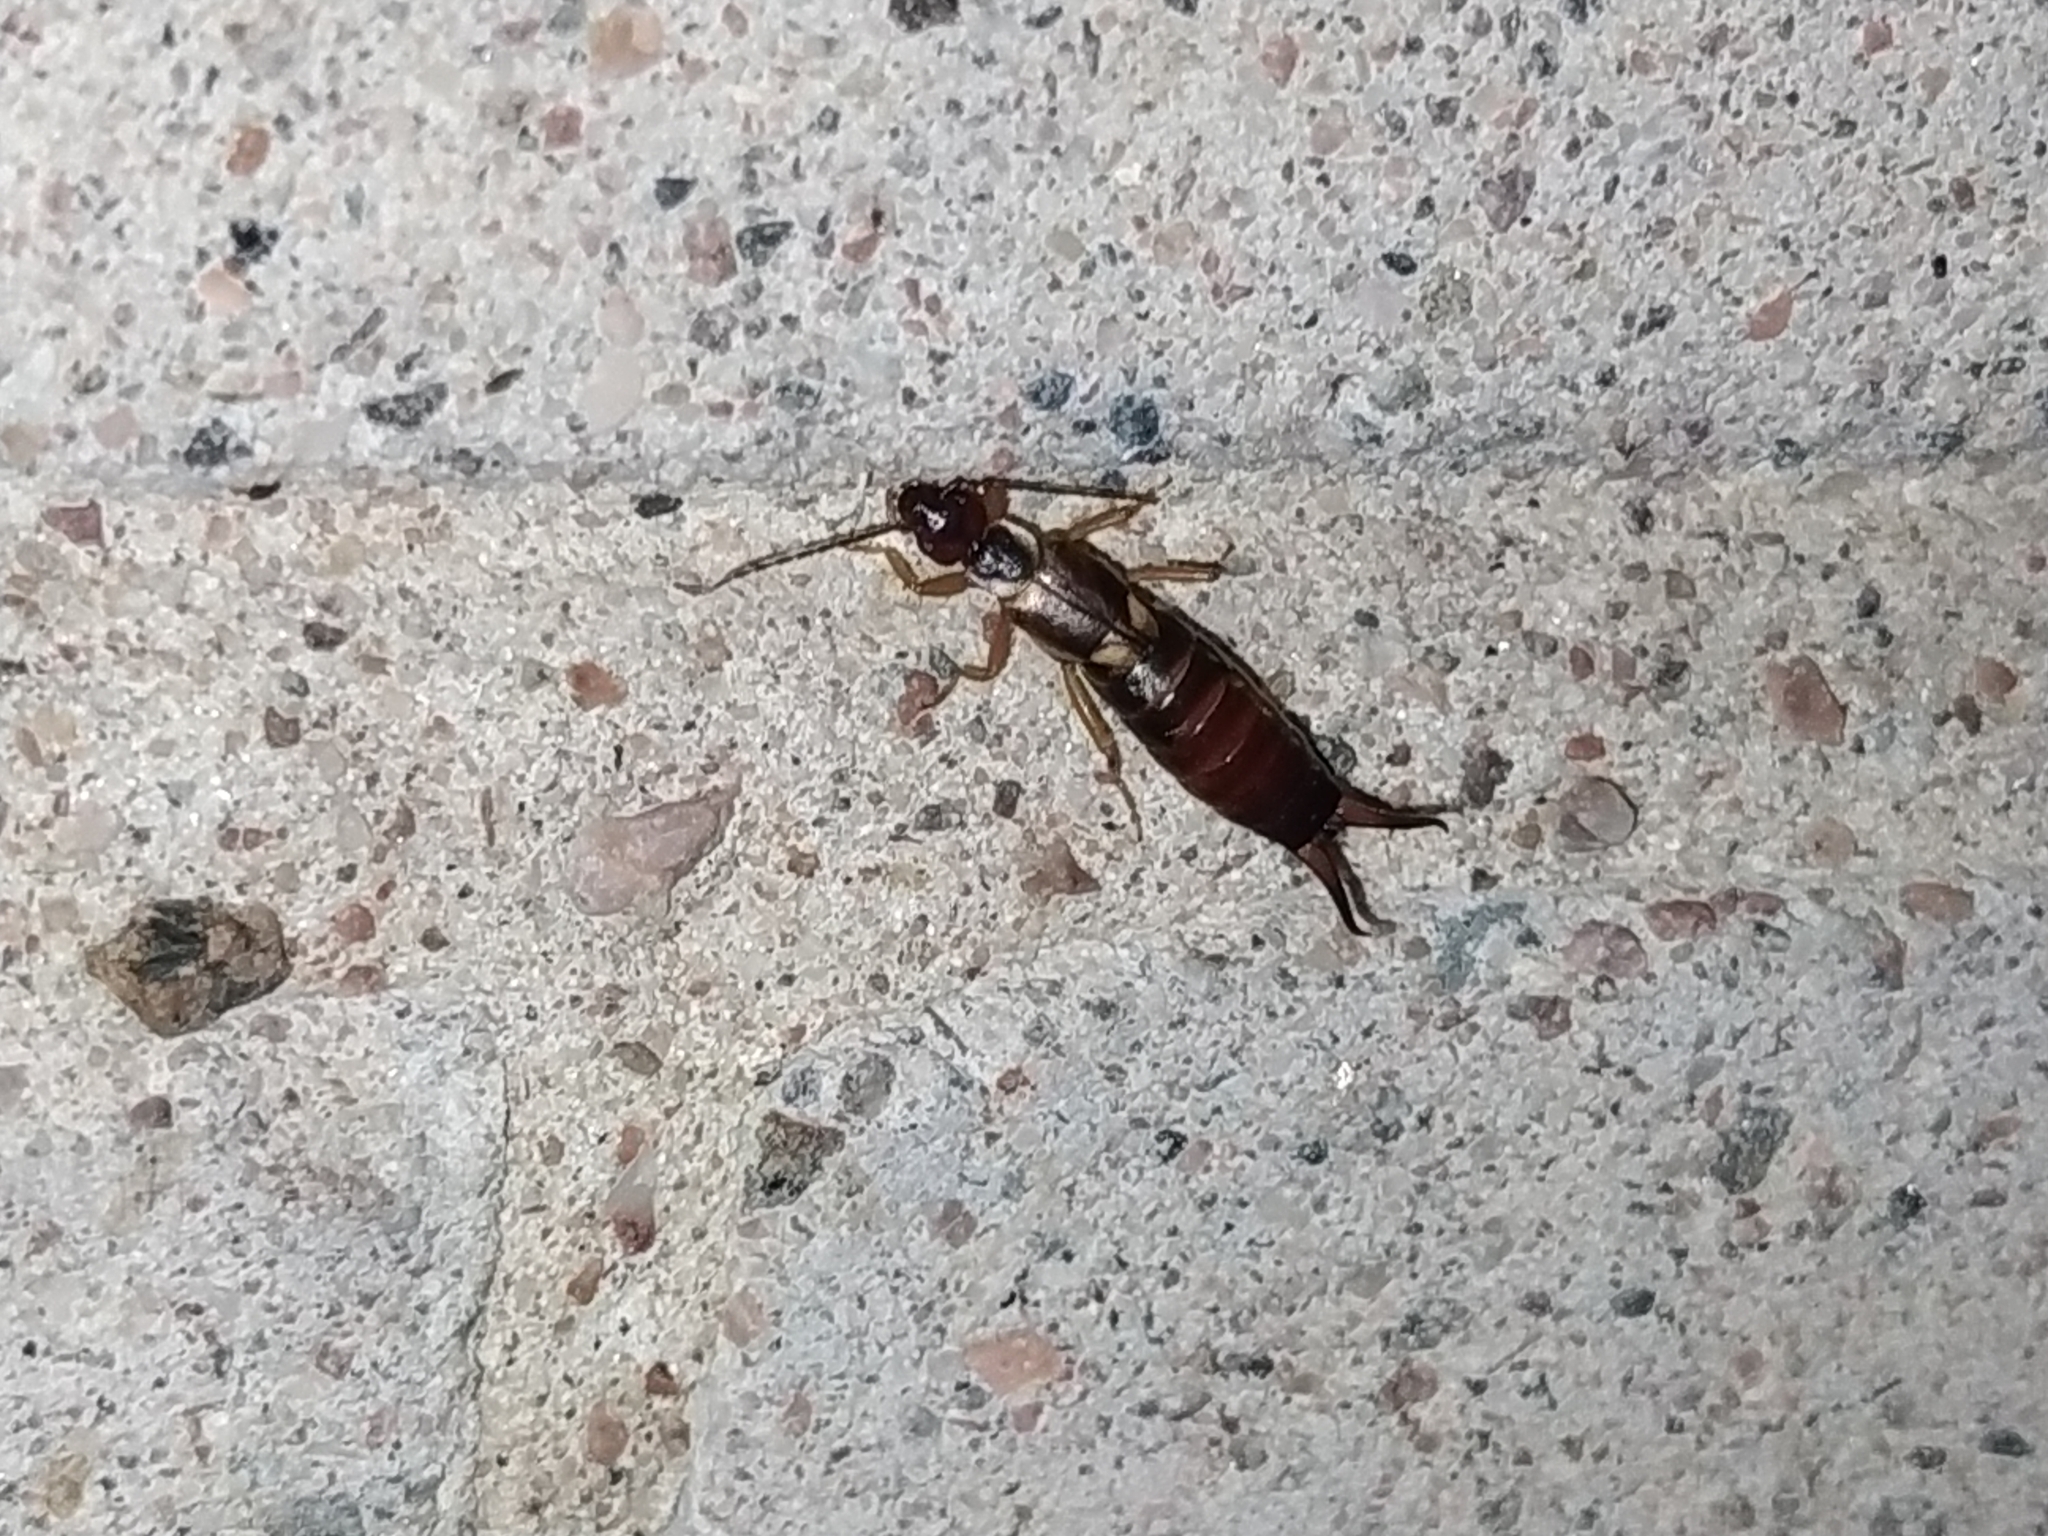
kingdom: Animalia
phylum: Arthropoda
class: Insecta
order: Dermaptera
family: Forficulidae
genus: Forficula
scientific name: Forficula
